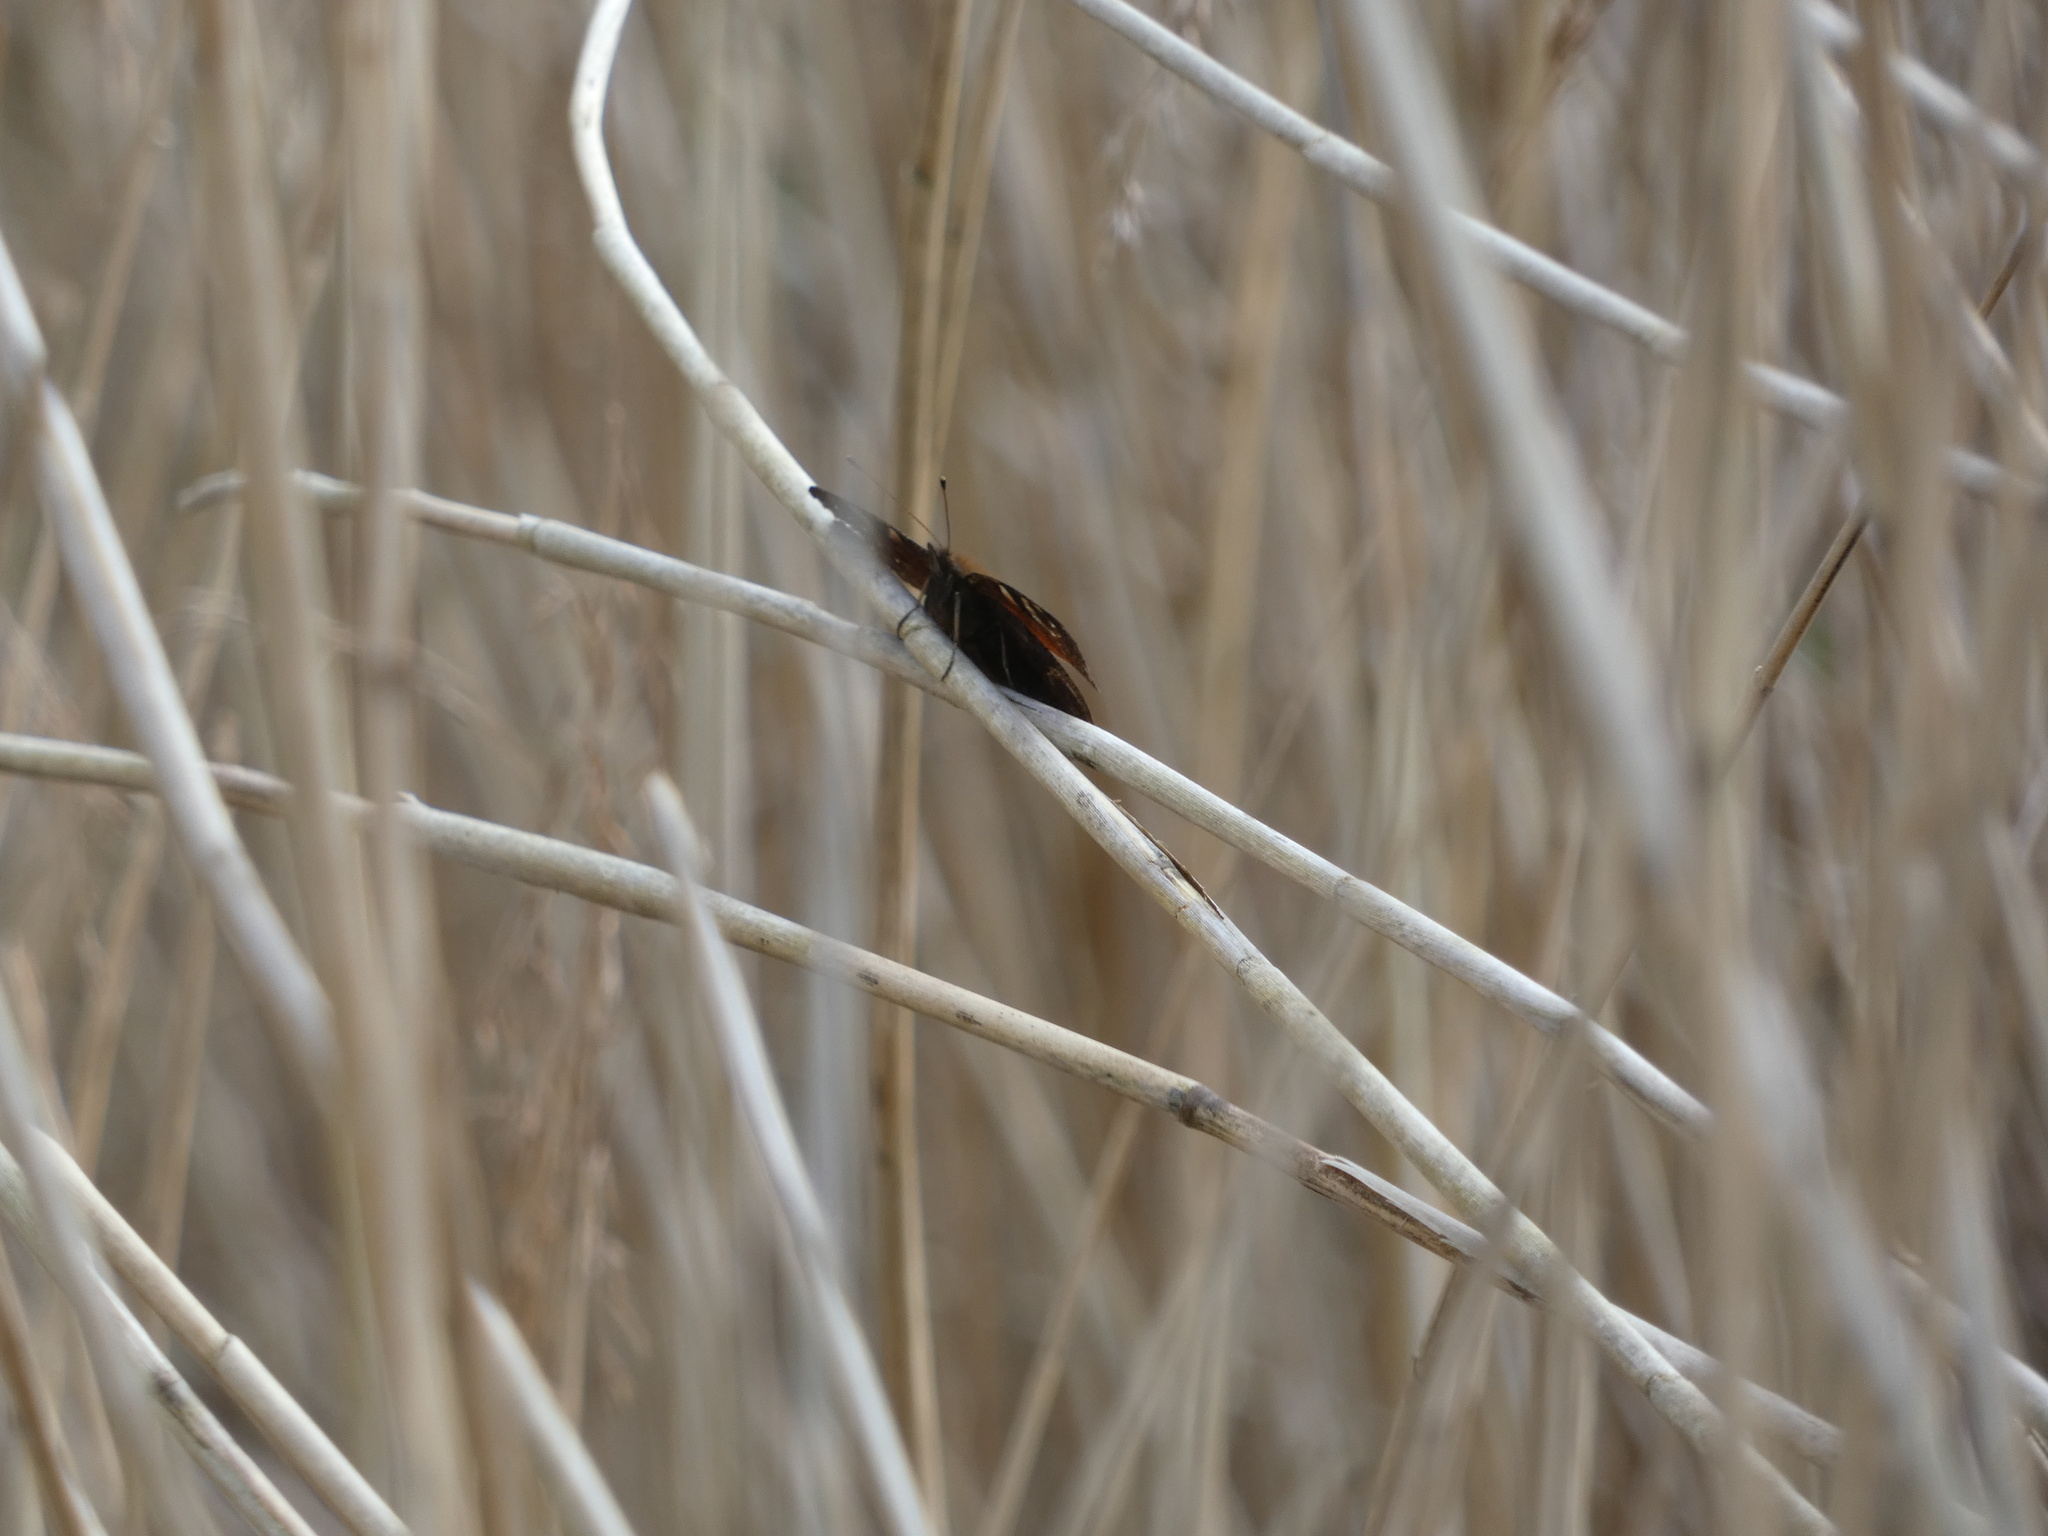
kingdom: Animalia
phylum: Arthropoda
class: Insecta
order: Lepidoptera
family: Nymphalidae
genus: Aglais
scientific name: Aglais io
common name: Peacock
